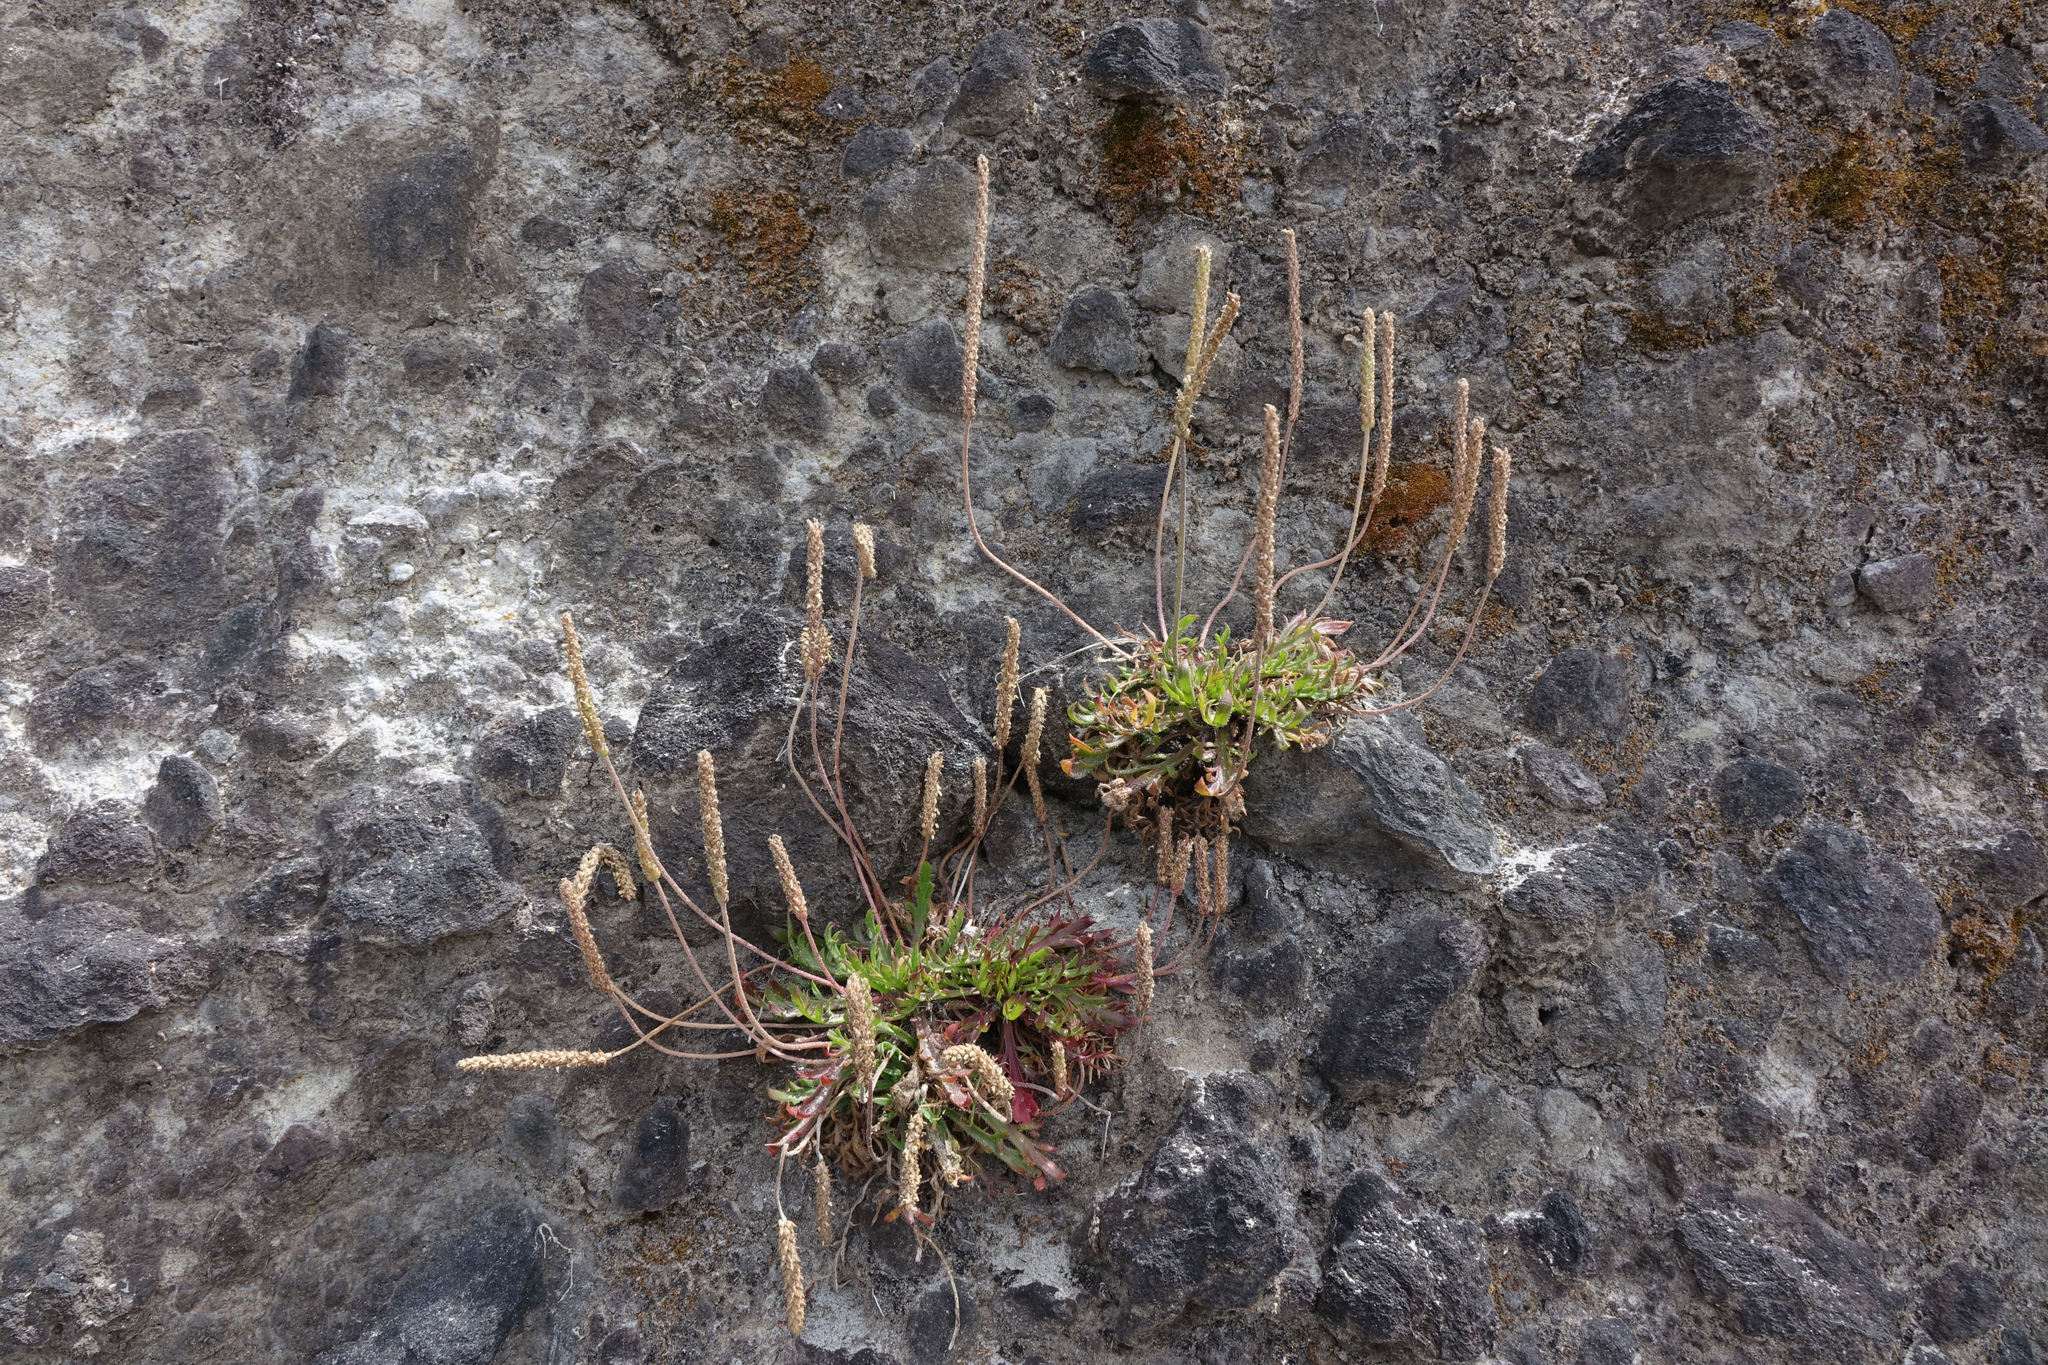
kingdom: Plantae
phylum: Tracheophyta
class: Magnoliopsida
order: Lamiales
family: Plantaginaceae
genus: Plantago
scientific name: Plantago coronopus
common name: Buck's-horn plantain
